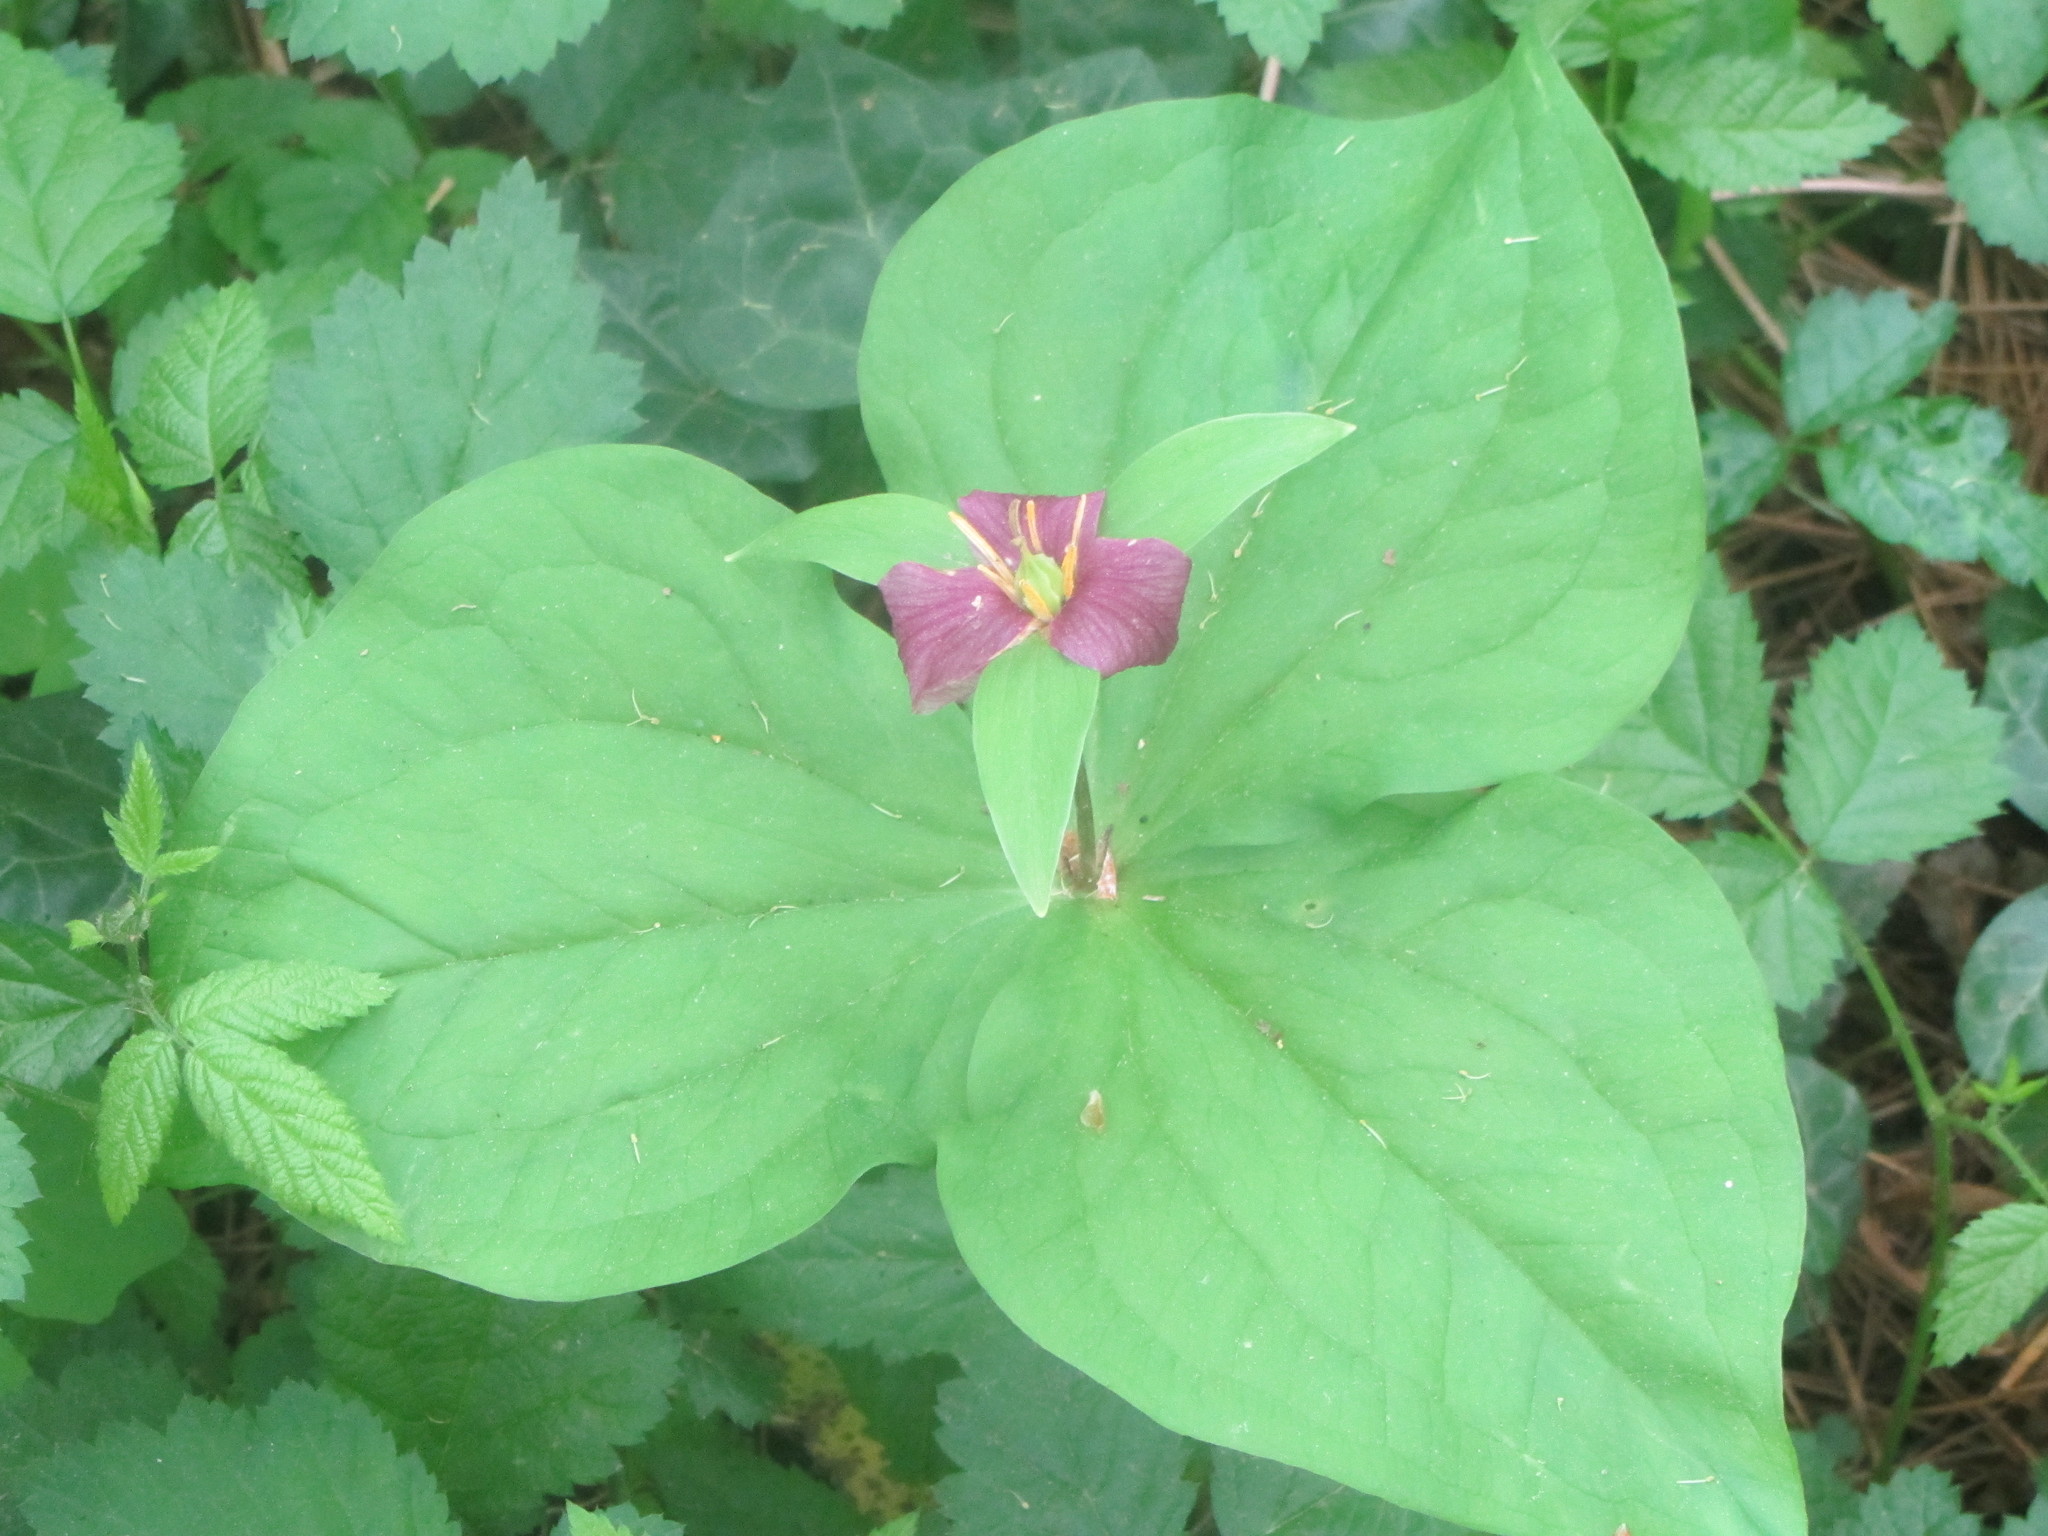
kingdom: Plantae
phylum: Tracheophyta
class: Liliopsida
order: Liliales
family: Melanthiaceae
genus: Trillium
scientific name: Trillium ovatum
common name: Pacific trillium
